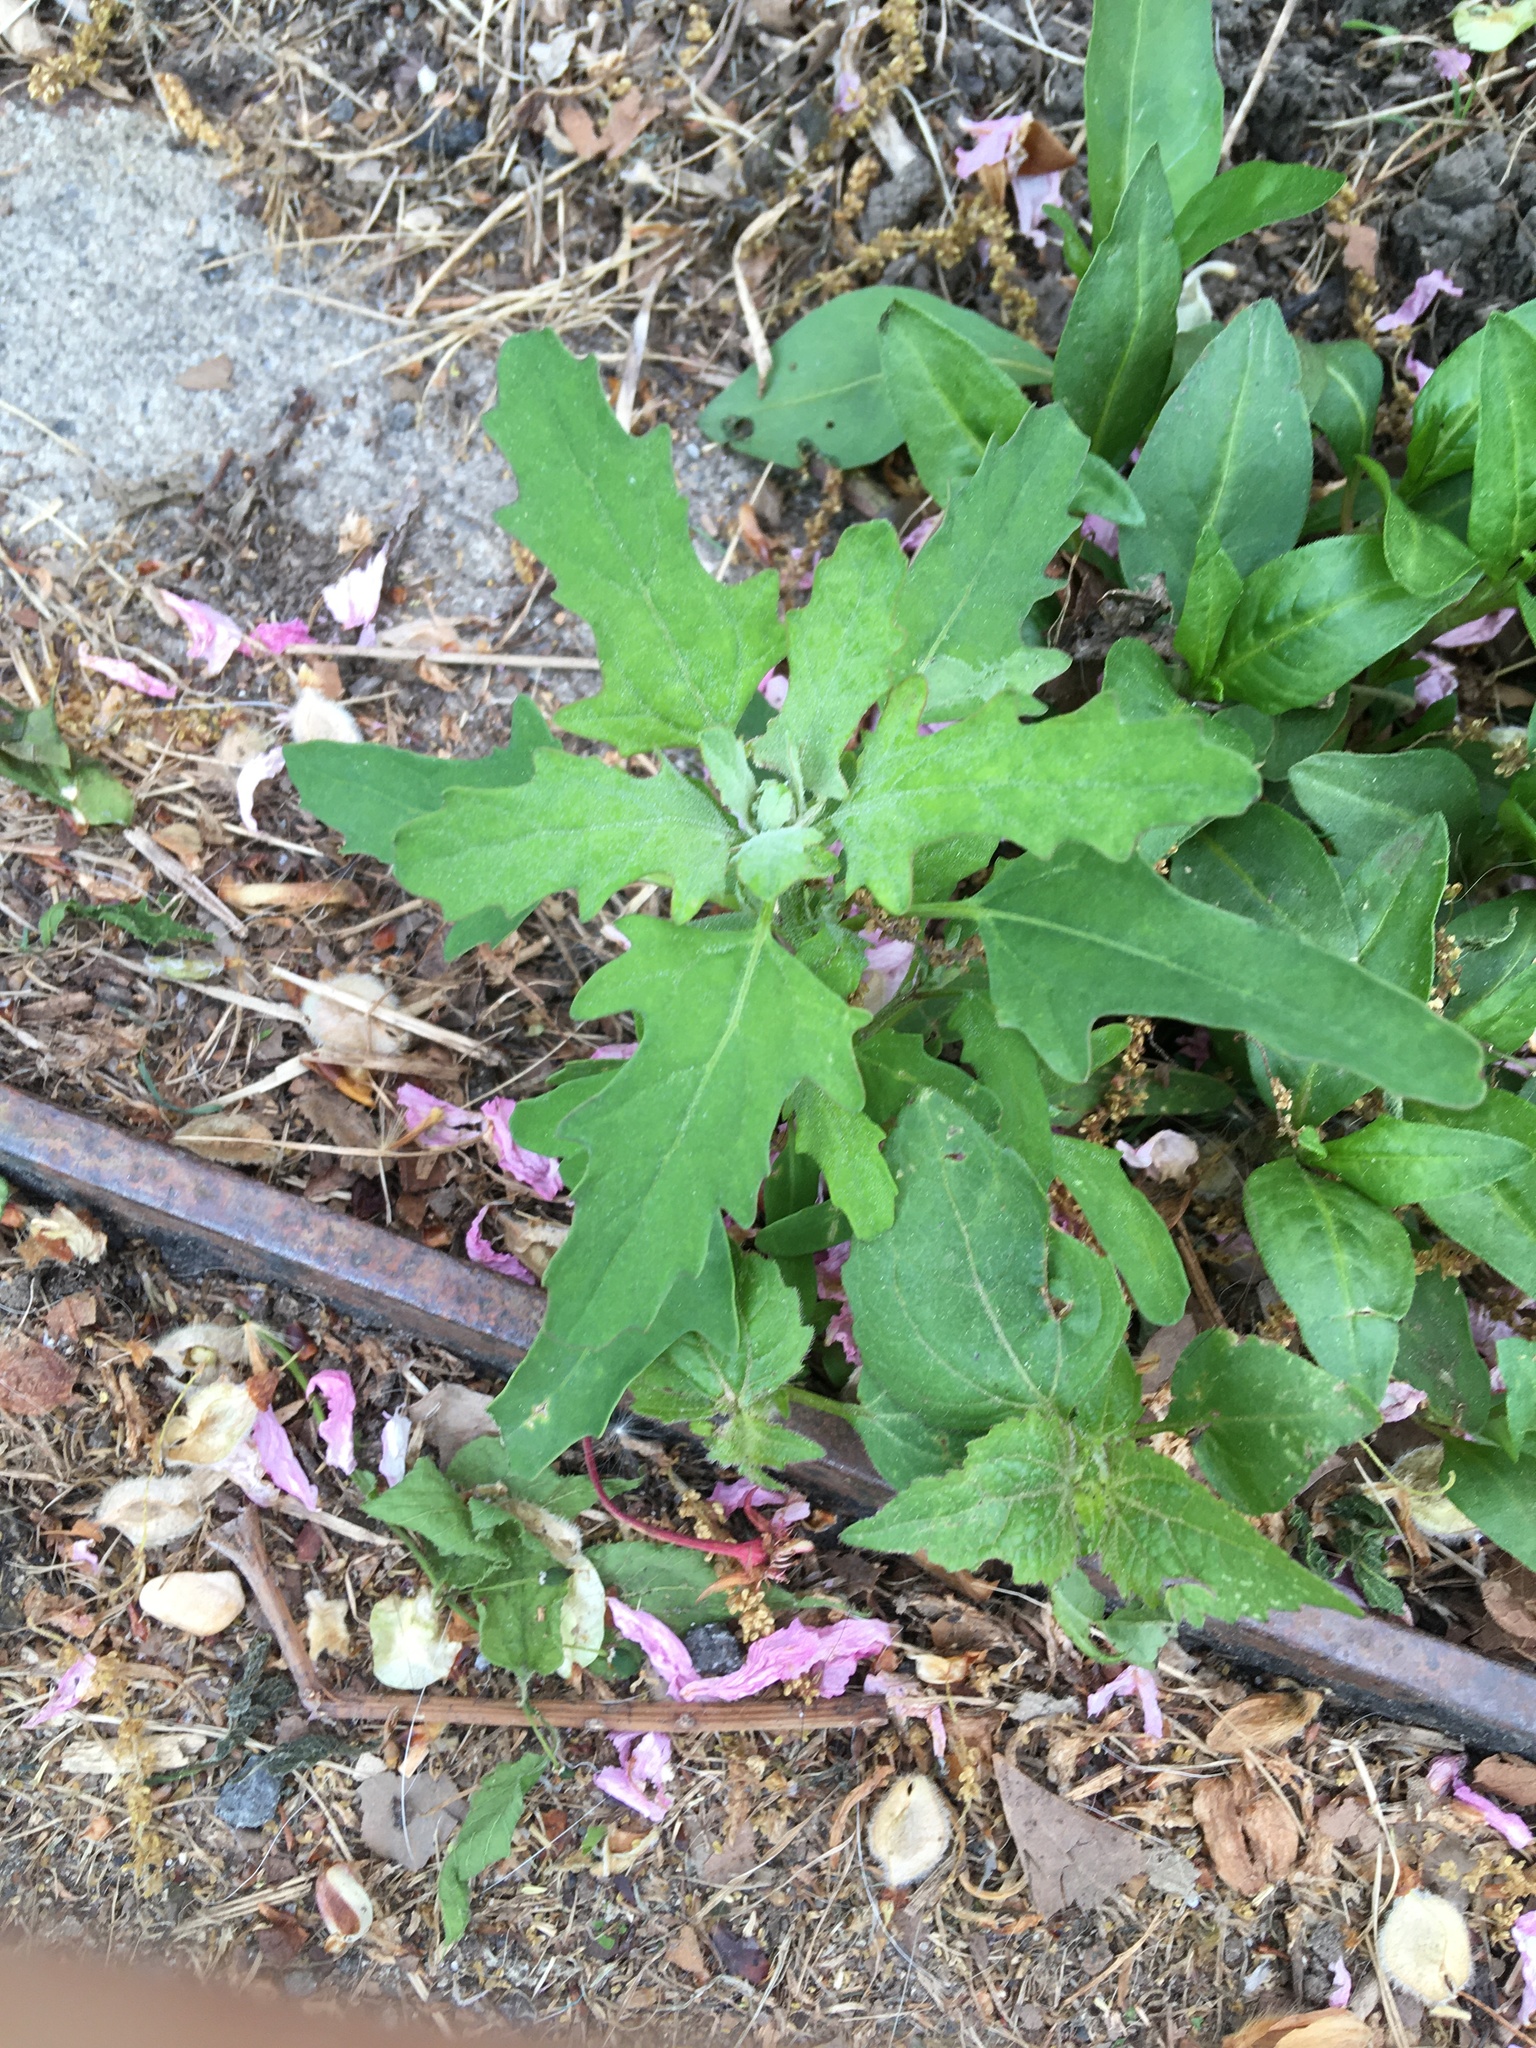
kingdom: Plantae
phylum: Tracheophyta
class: Magnoliopsida
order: Caryophyllales
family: Amaranthaceae
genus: Chenopodium
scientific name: Chenopodium album
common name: Fat-hen
